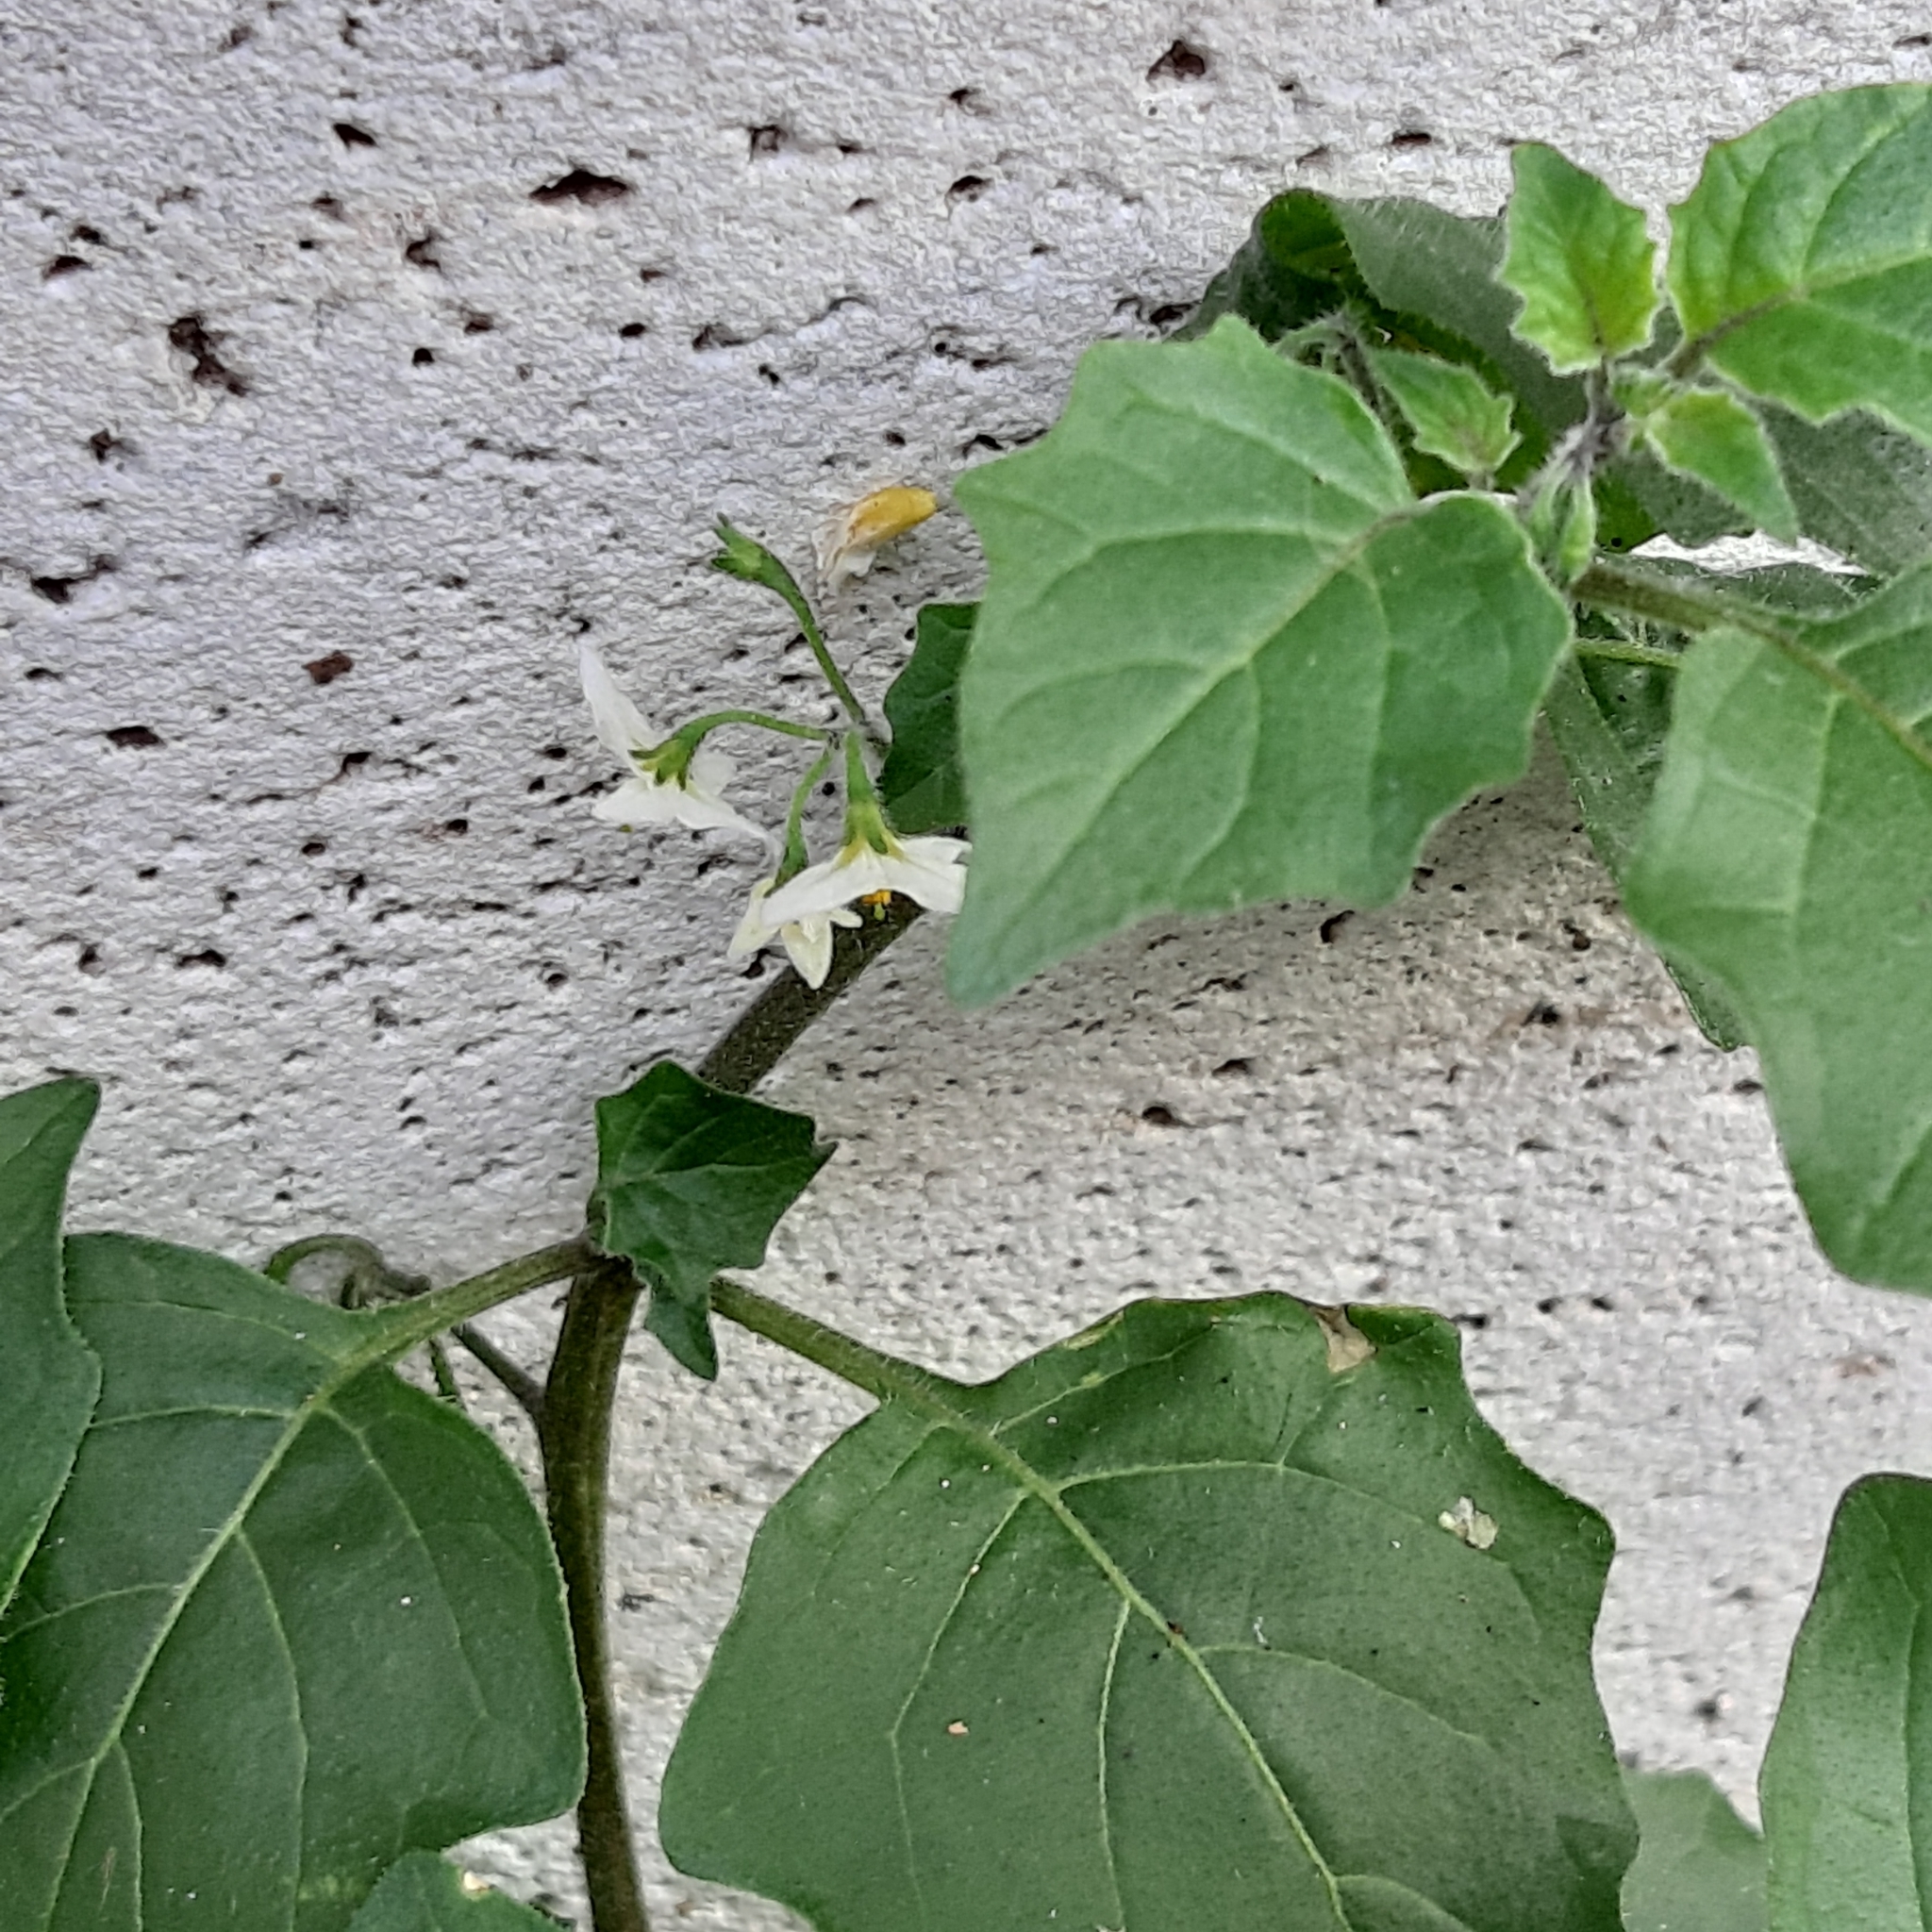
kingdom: Plantae
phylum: Tracheophyta
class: Magnoliopsida
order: Solanales
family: Solanaceae
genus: Solanum
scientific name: Solanum nigrum
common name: Black nightshade
